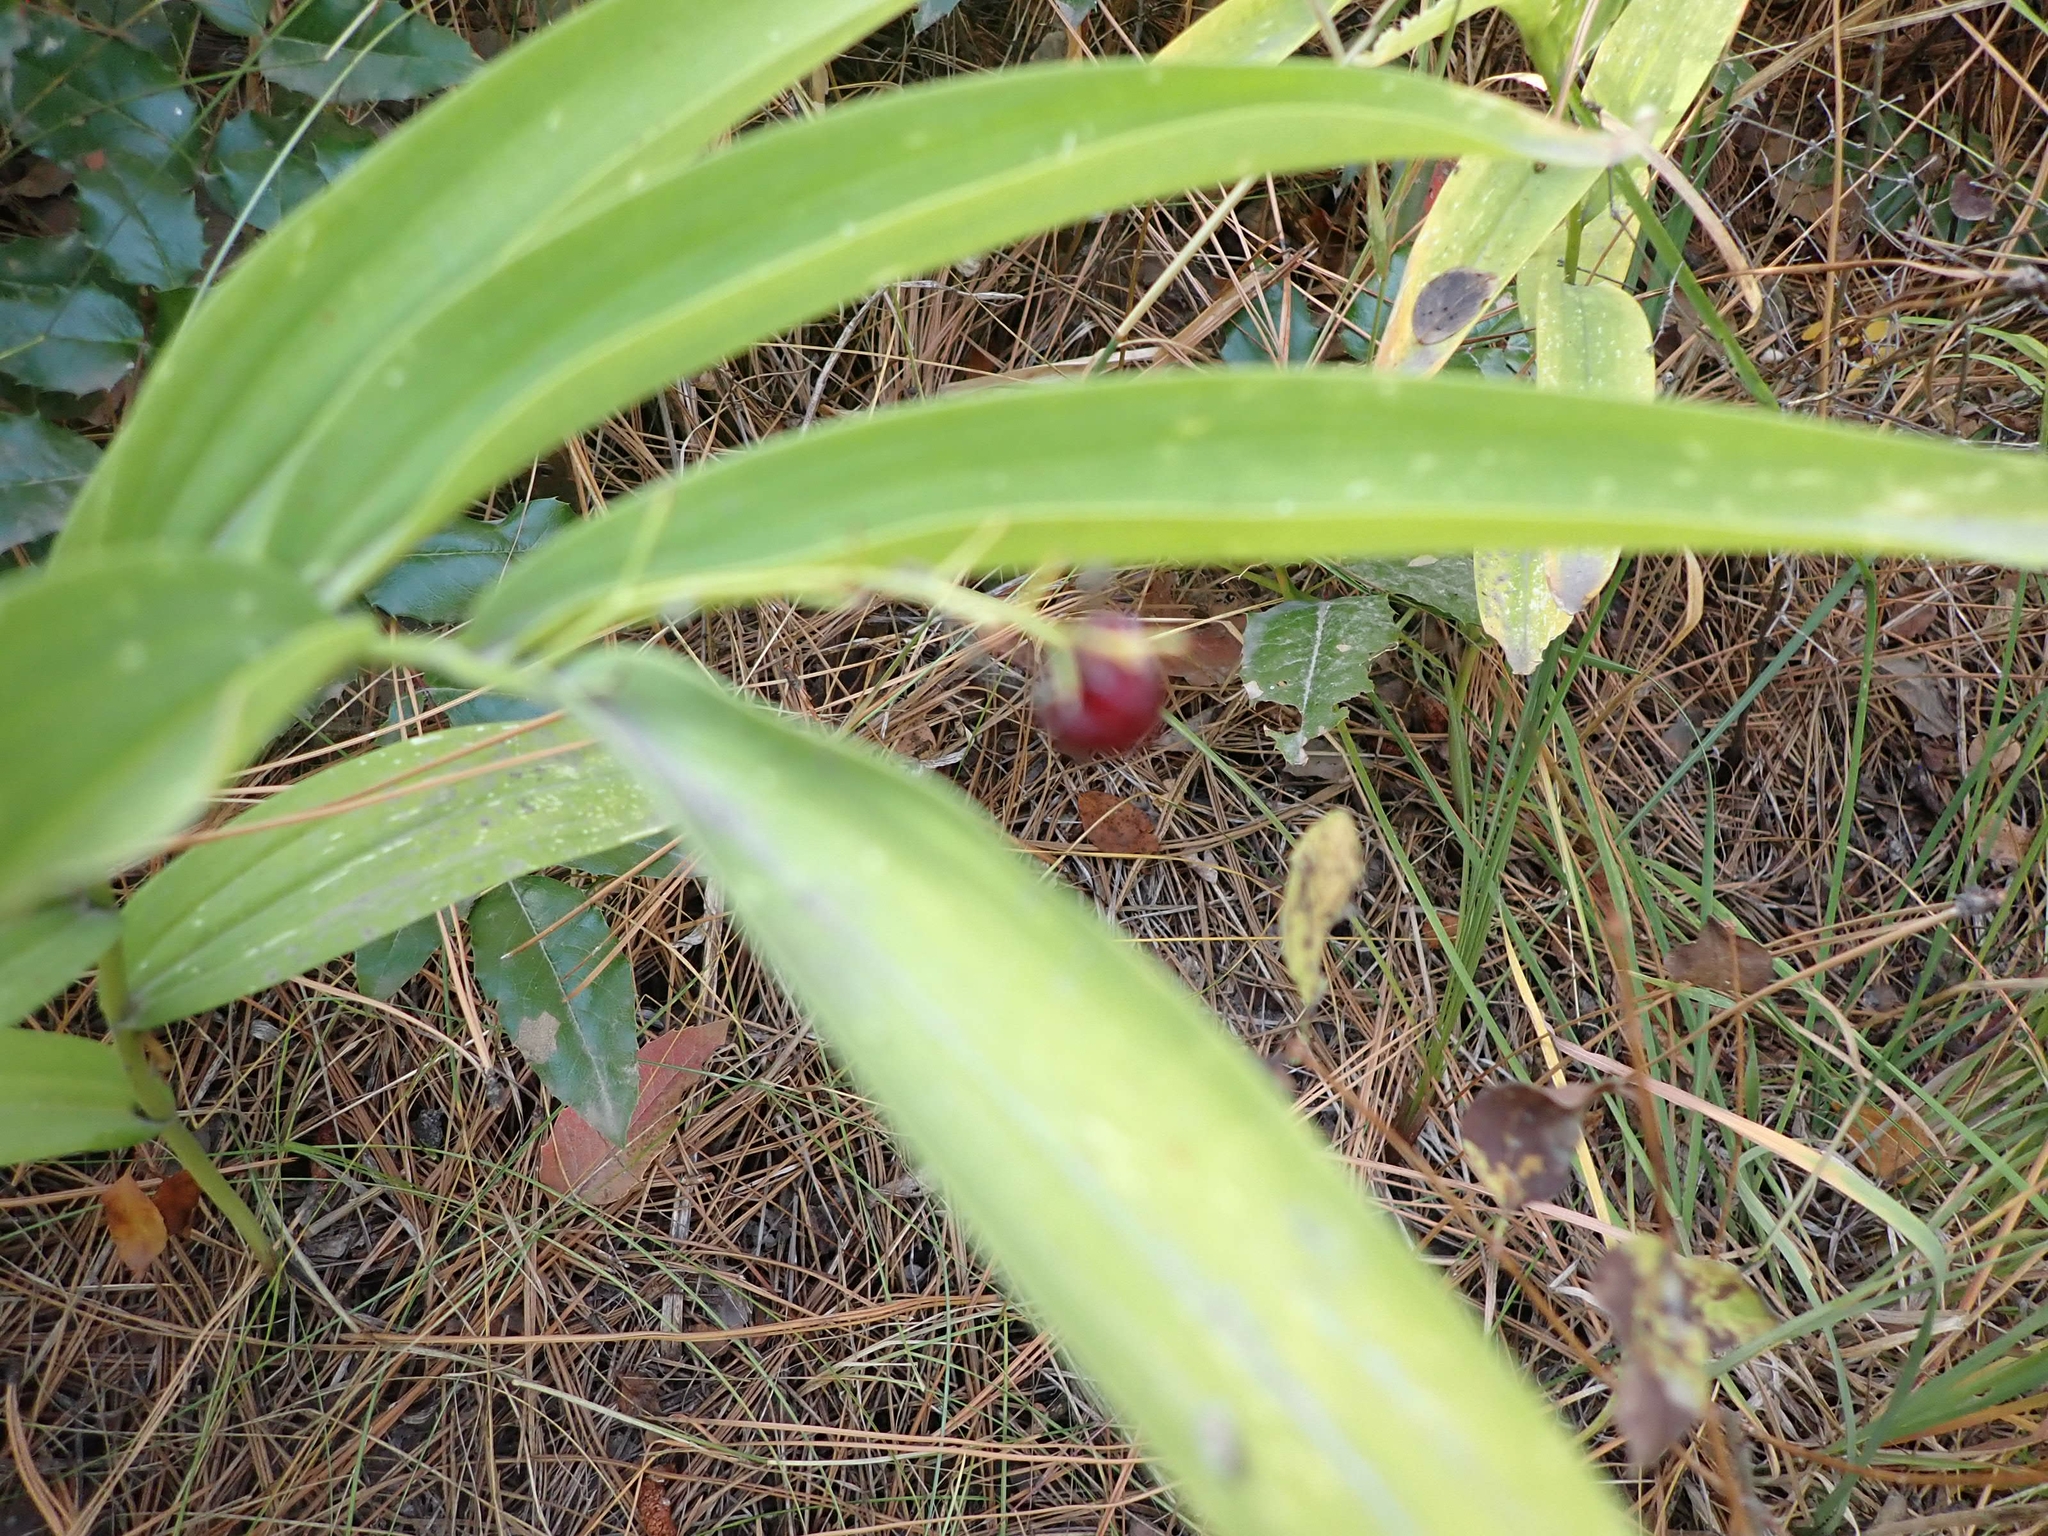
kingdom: Plantae
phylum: Tracheophyta
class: Liliopsida
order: Asparagales
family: Asparagaceae
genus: Maianthemum
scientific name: Maianthemum stellatum
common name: Little false solomon's seal
